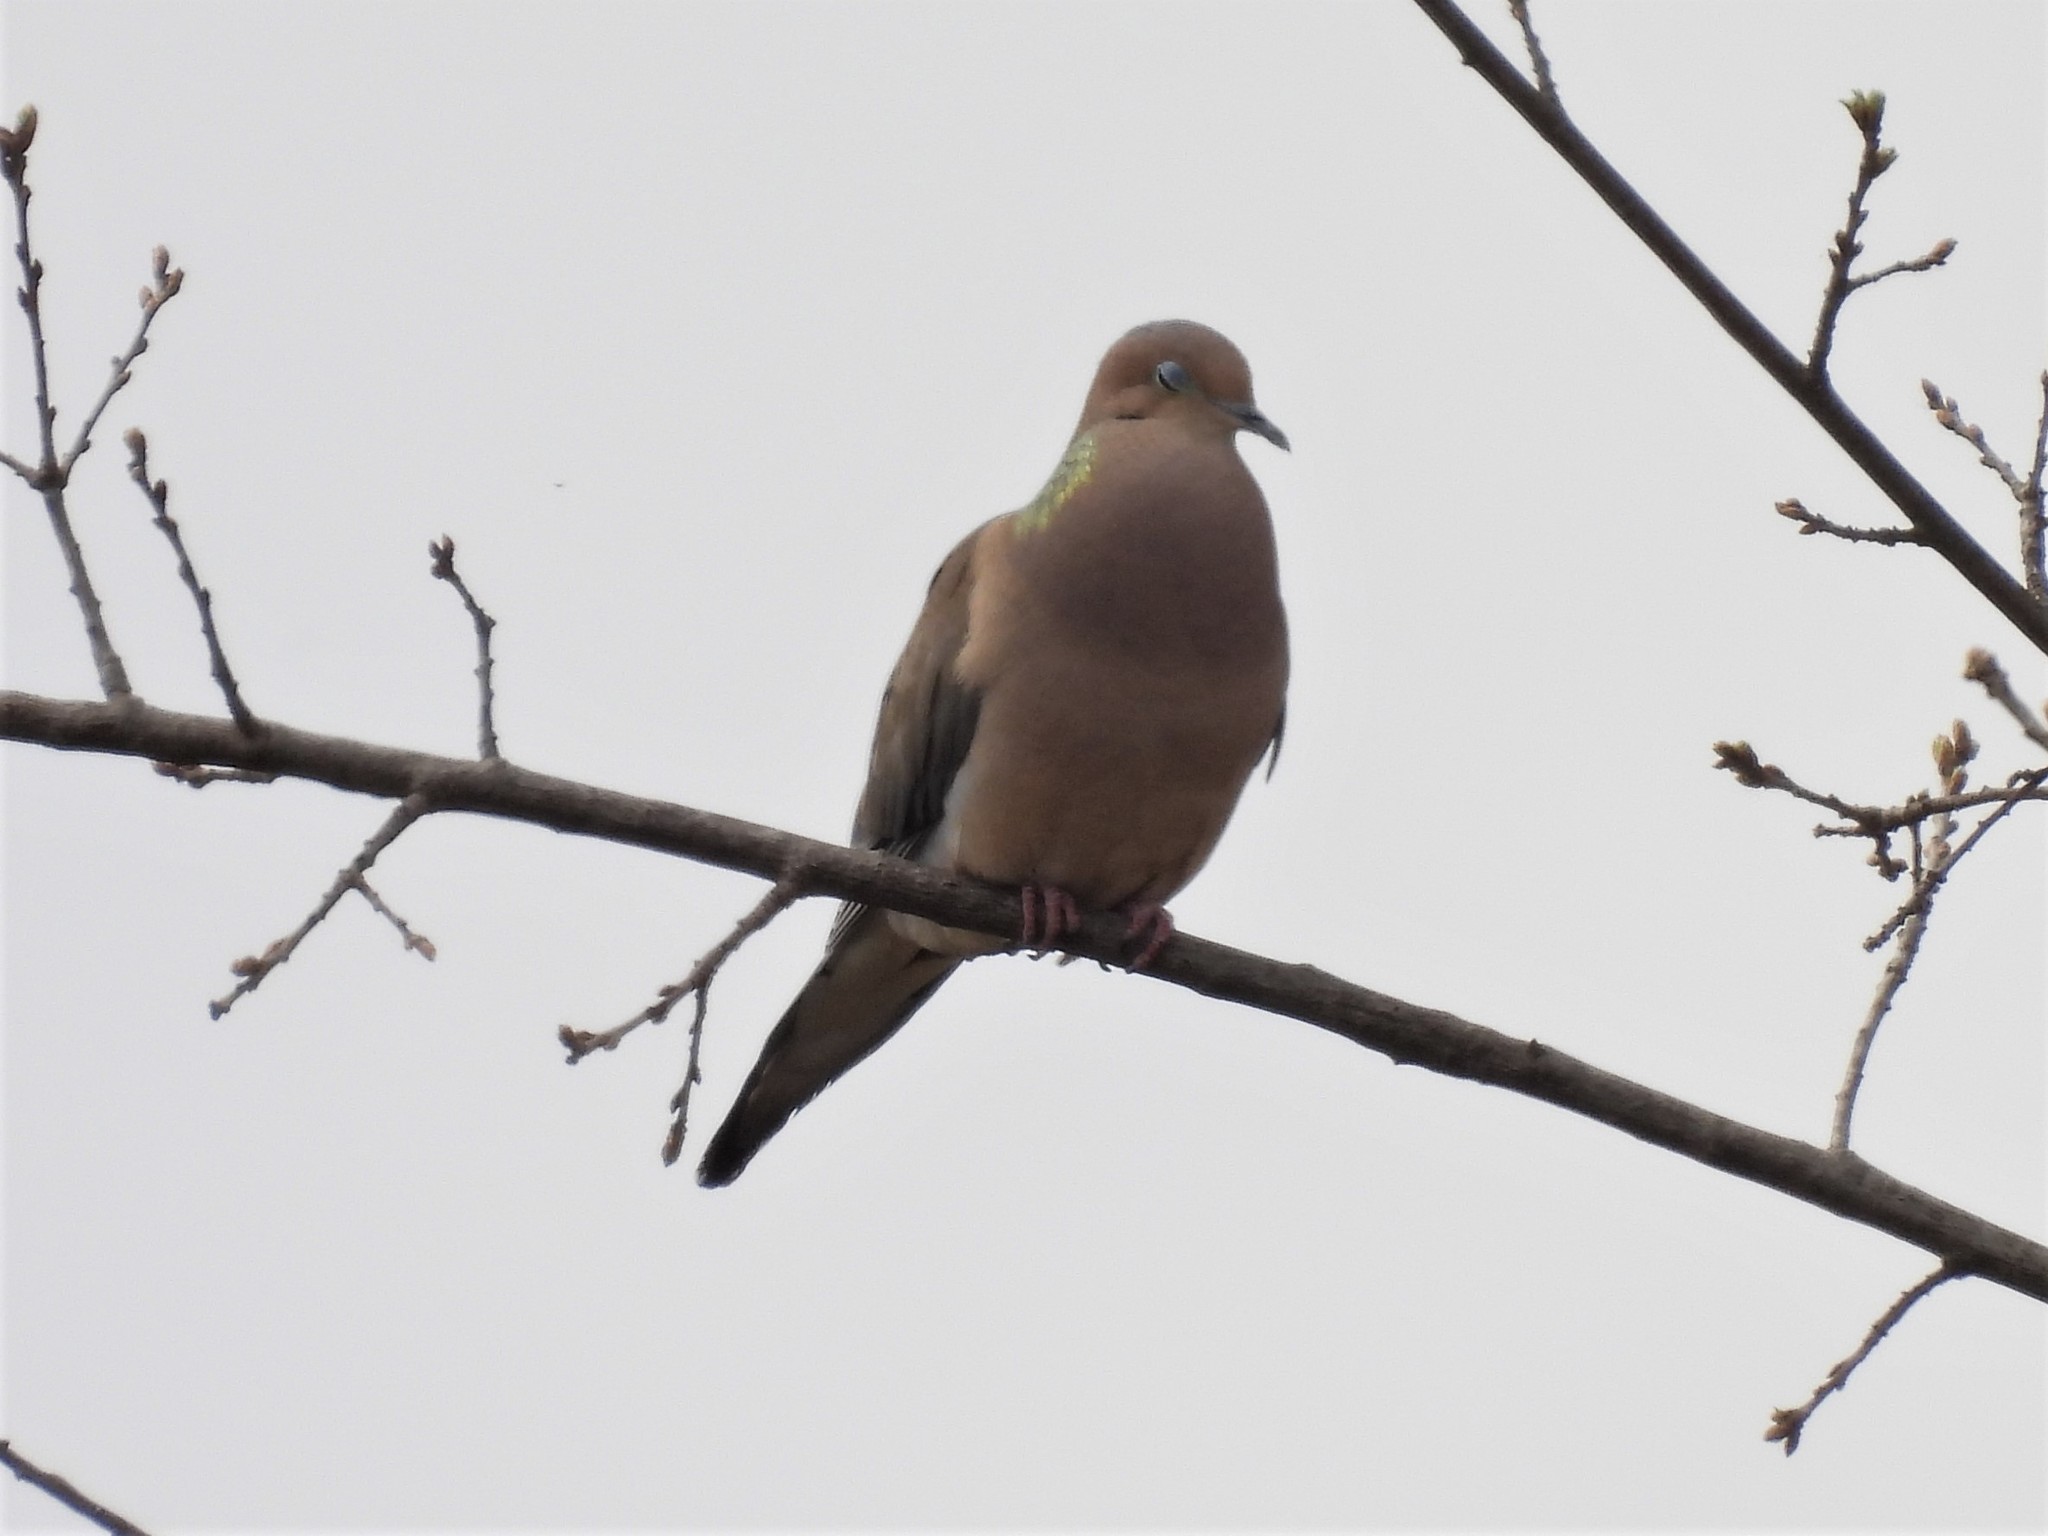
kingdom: Animalia
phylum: Chordata
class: Aves
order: Columbiformes
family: Columbidae
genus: Zenaida
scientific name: Zenaida macroura
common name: Mourning dove
